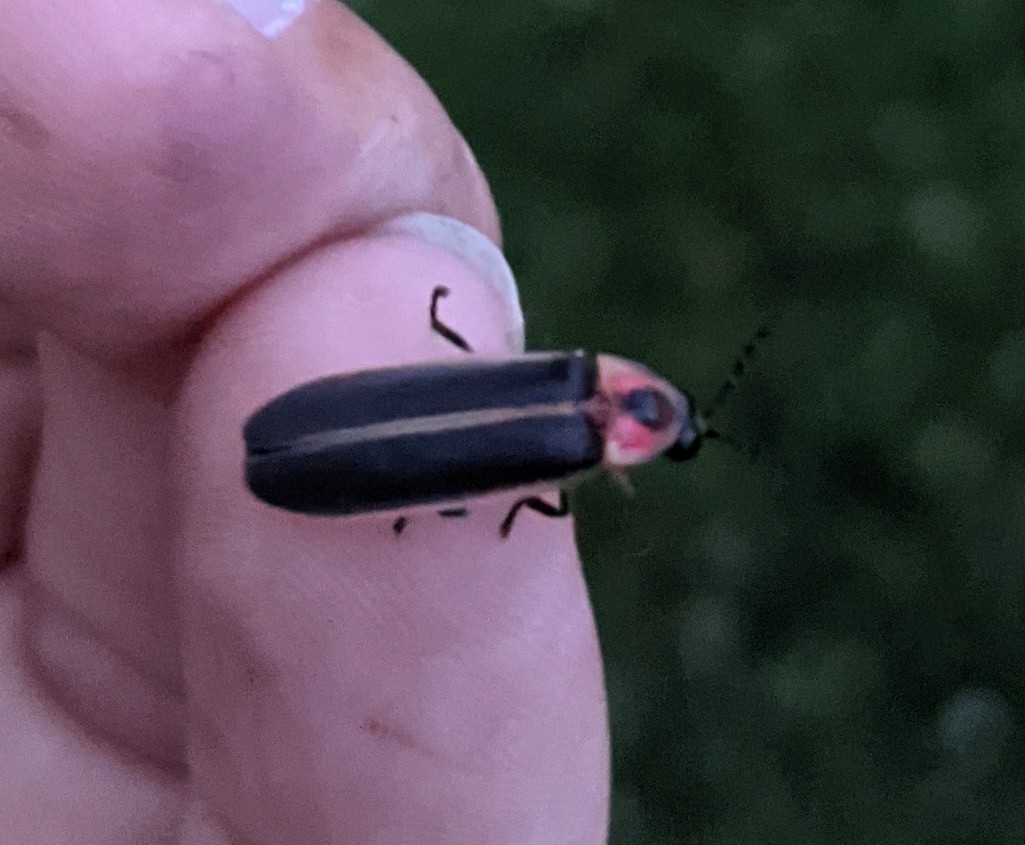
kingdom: Animalia
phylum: Arthropoda
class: Insecta
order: Coleoptera
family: Lampyridae
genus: Photinus
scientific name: Photinus pyralis
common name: Big dipper firefly
